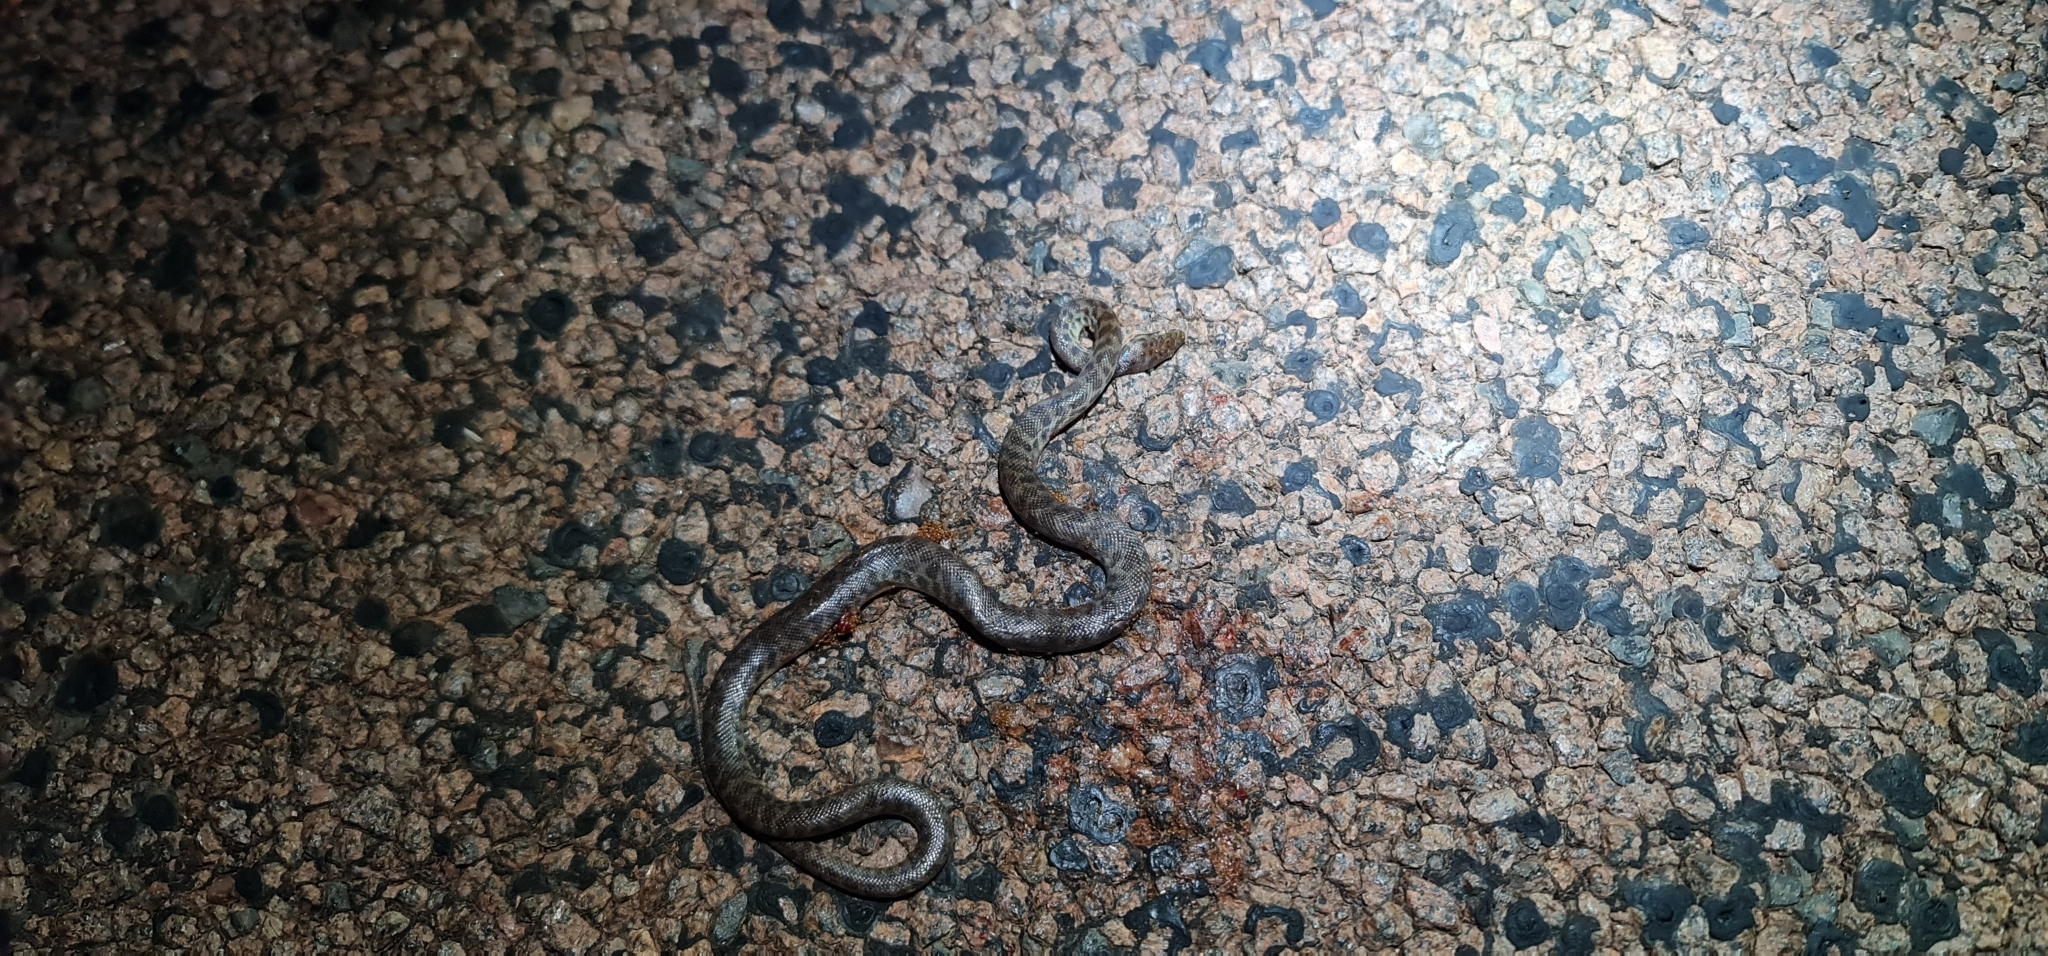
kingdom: Animalia
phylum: Chordata
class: Squamata
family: Pythonidae
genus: Antaresia
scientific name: Antaresia childreni
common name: Children's python
